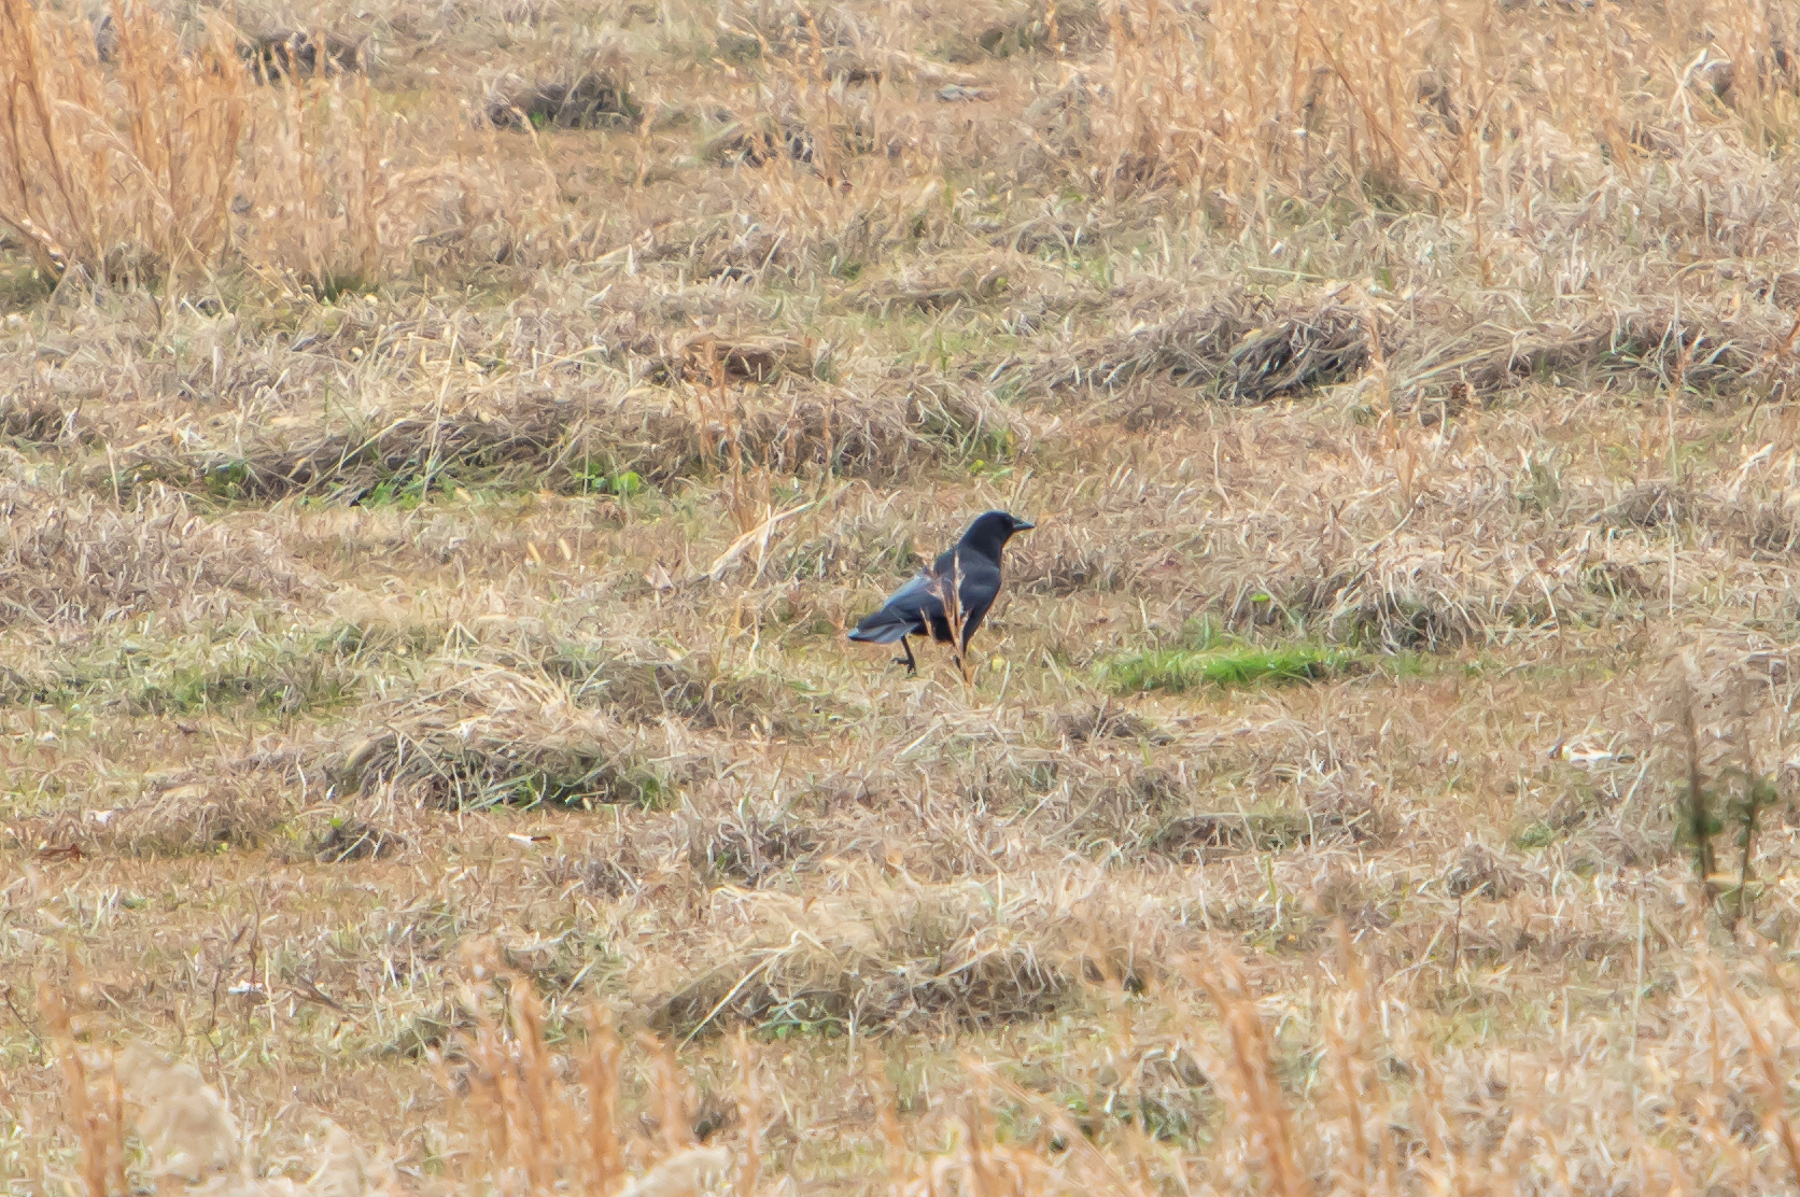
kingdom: Animalia
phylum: Chordata
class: Aves
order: Passeriformes
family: Corvidae
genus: Corvus
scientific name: Corvus brachyrhynchos
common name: American crow
